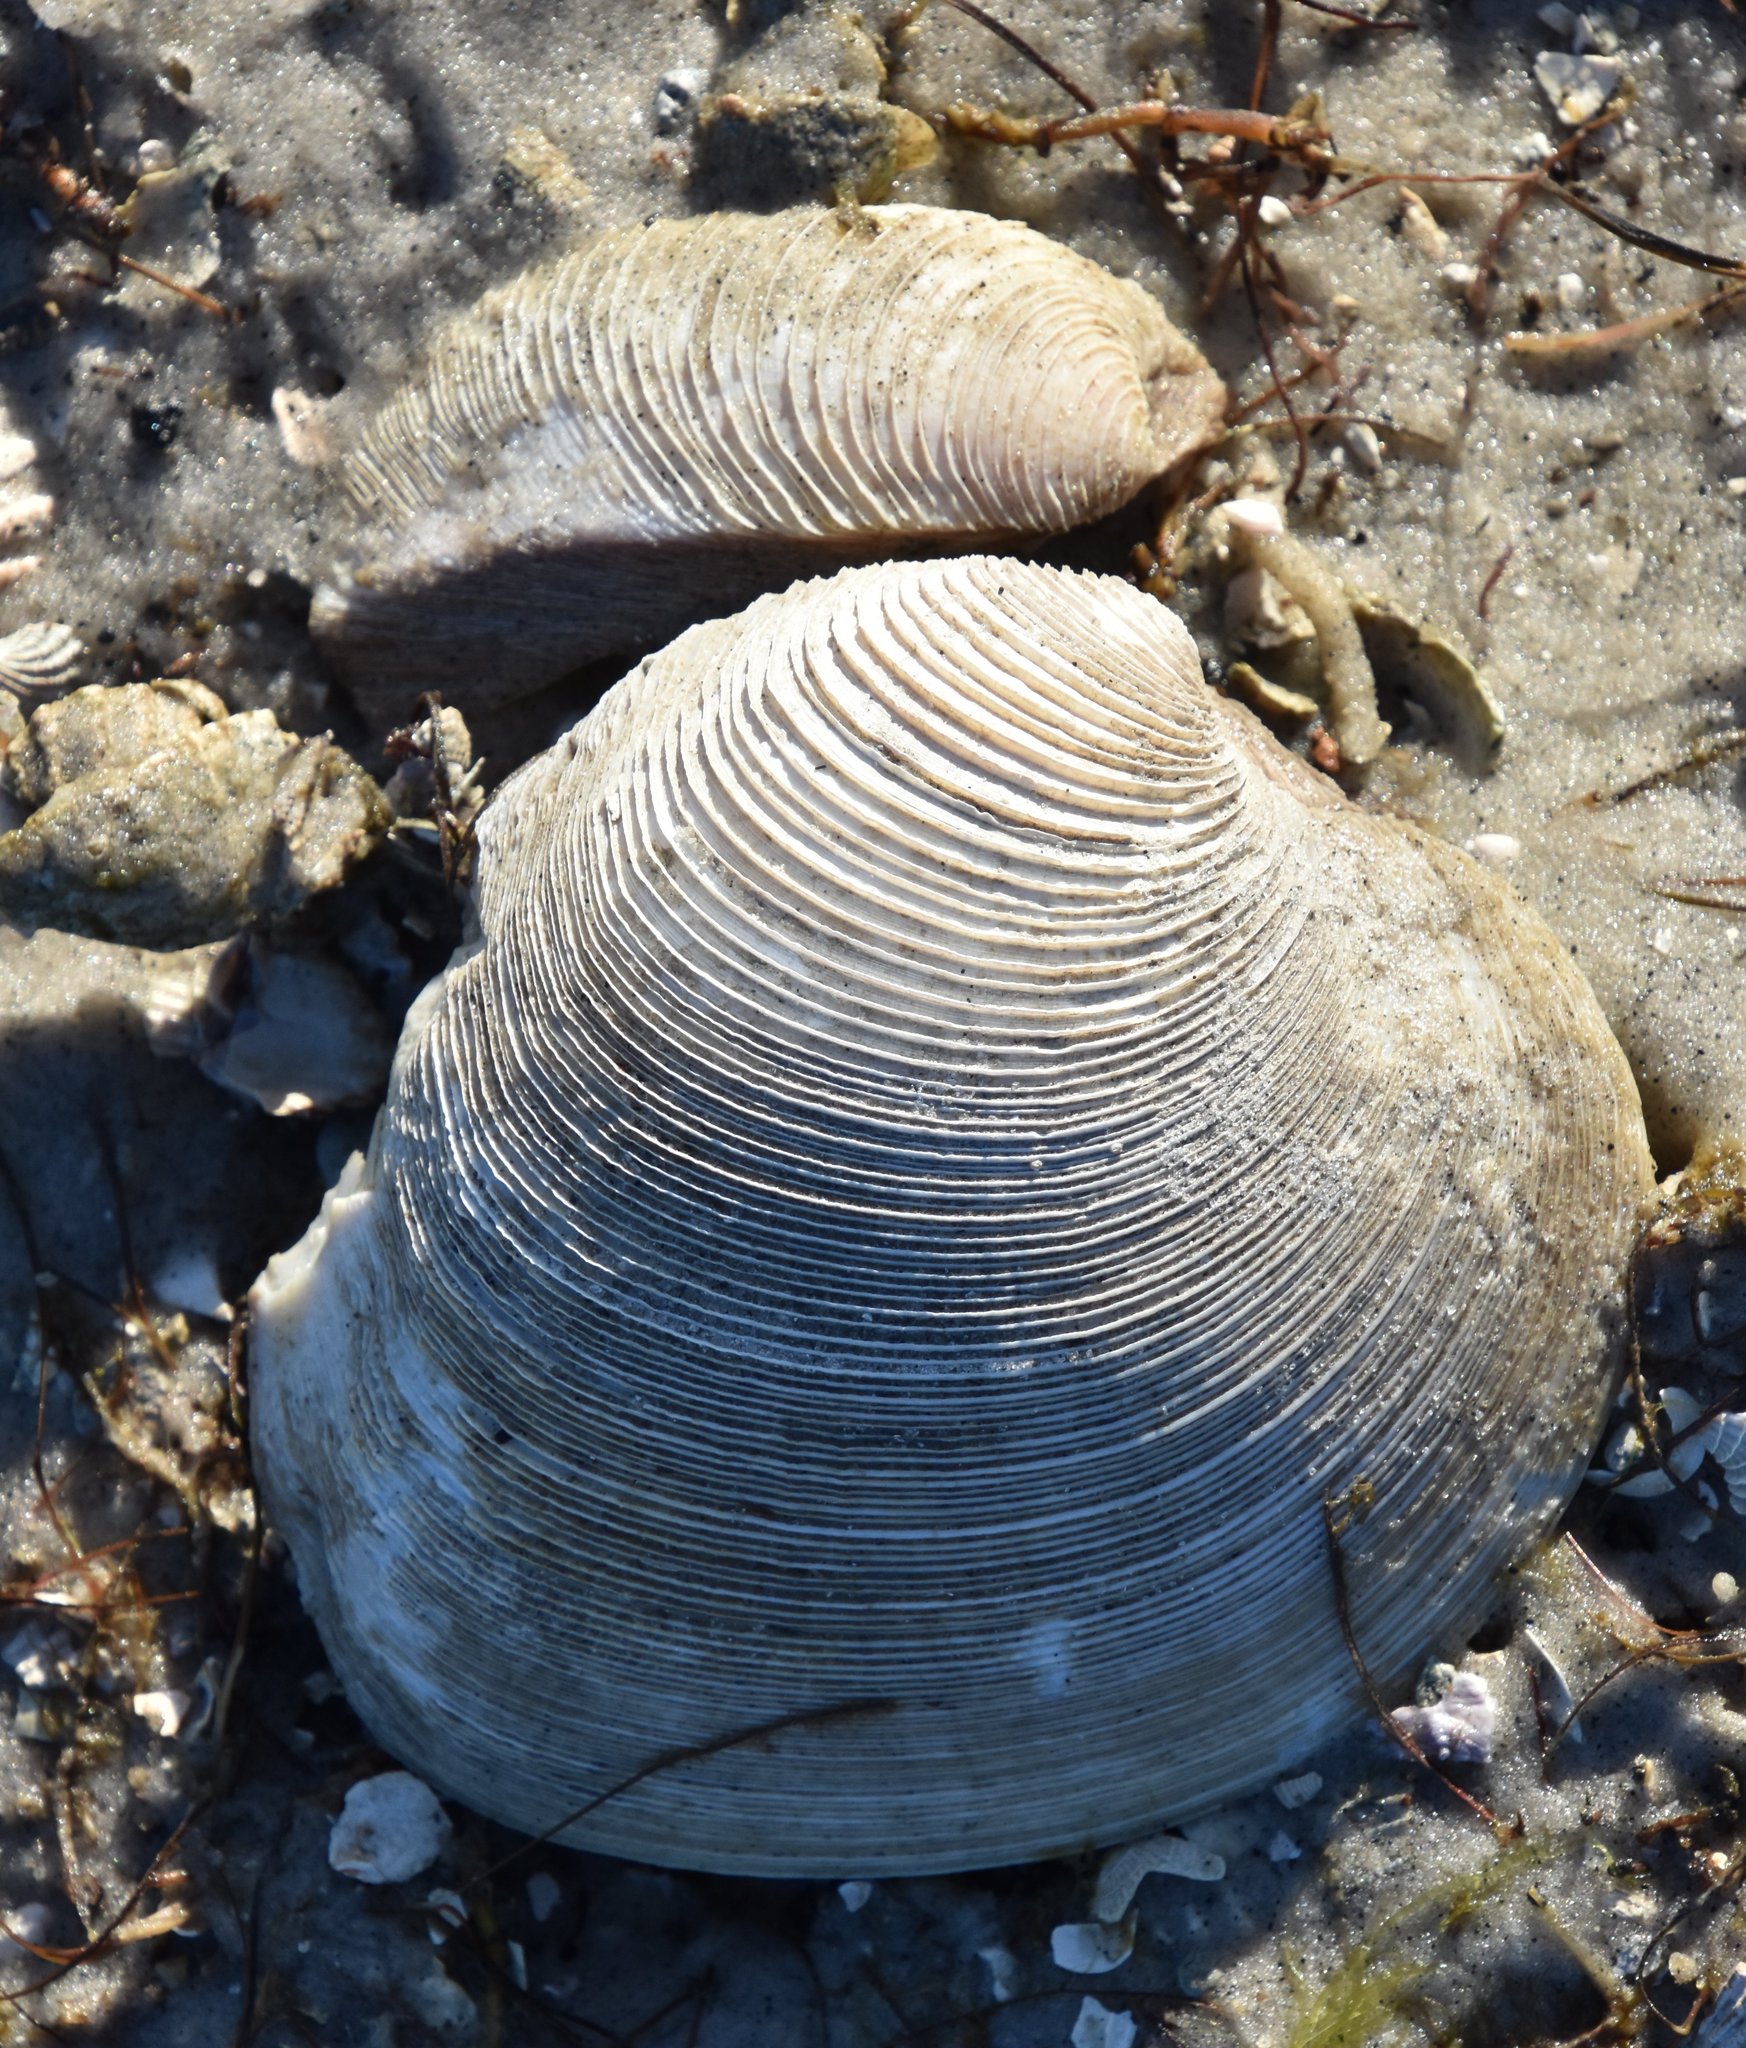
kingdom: Animalia
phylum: Mollusca
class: Bivalvia
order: Venerida
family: Veneridae
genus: Mercenaria
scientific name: Mercenaria campechiensis
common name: Südliche quahog-muschel
